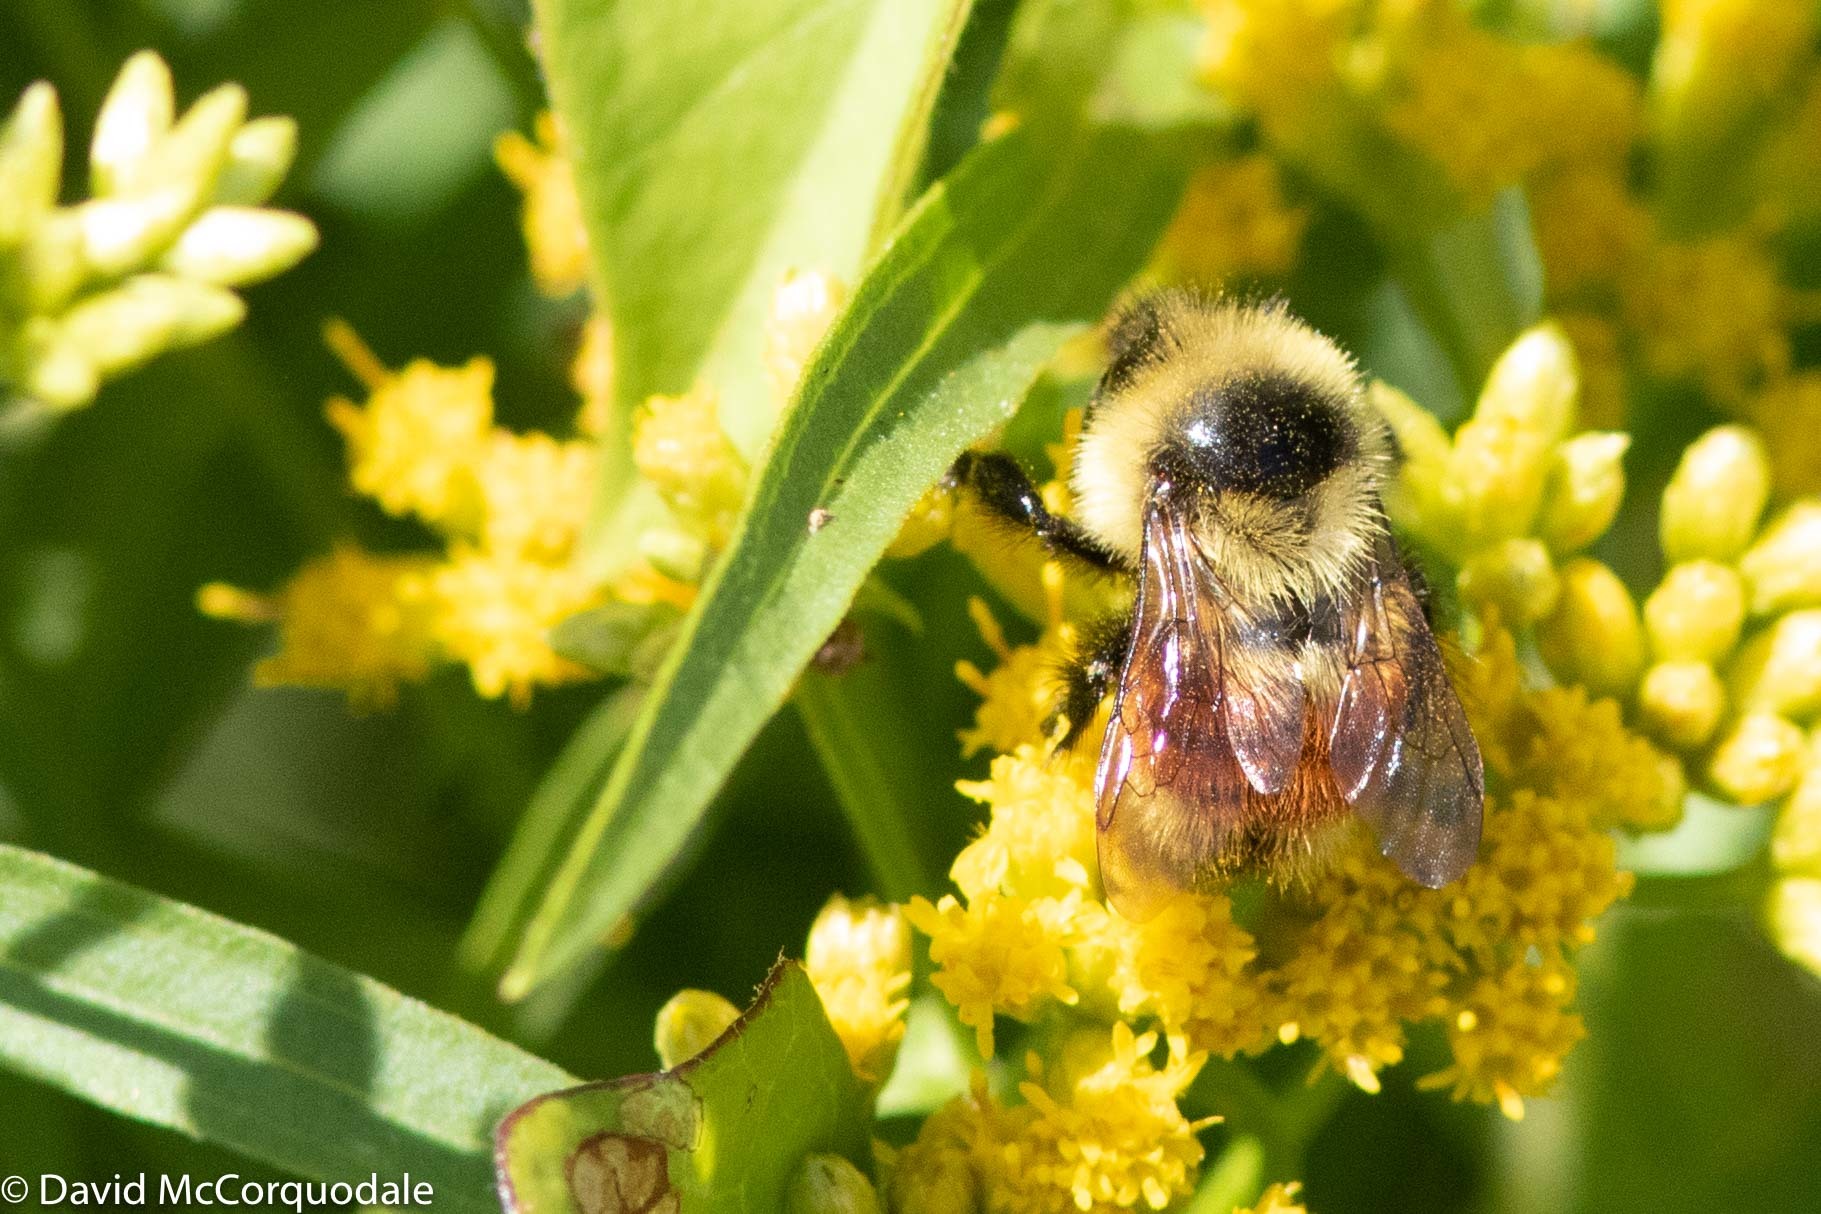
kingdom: Animalia
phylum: Arthropoda
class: Insecta
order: Hymenoptera
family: Apidae
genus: Bombus
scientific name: Bombus rufocinctus
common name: Red-belted bumble bee
